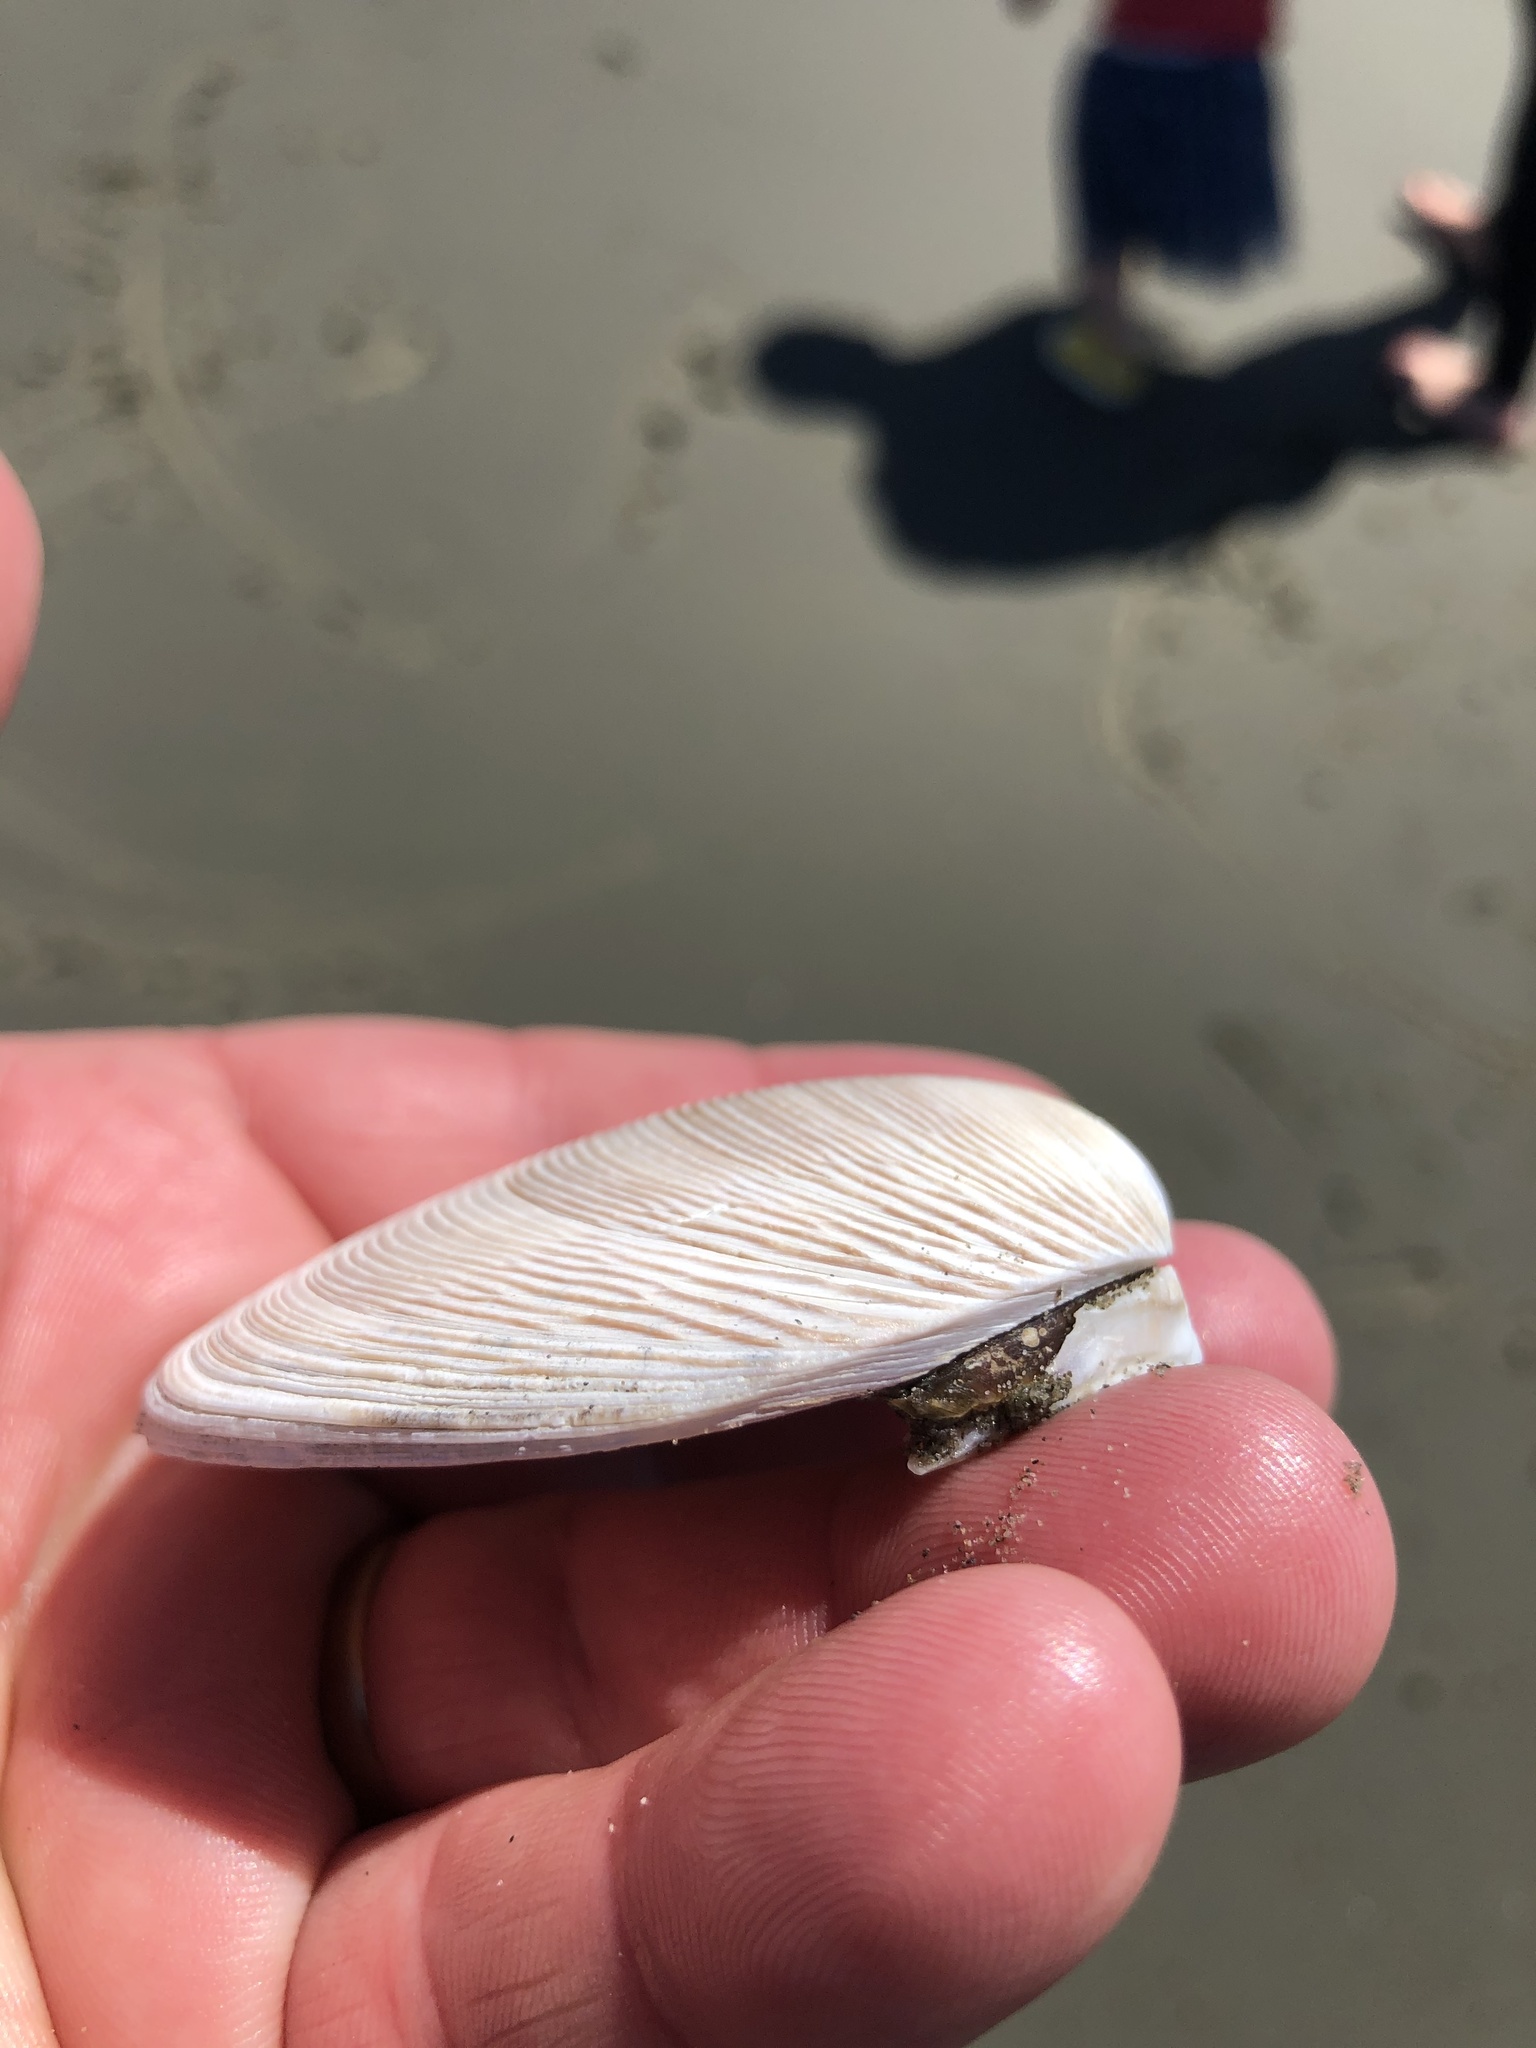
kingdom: Animalia
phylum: Mollusca
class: Bivalvia
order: Venerida
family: Veneridae
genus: Dosinia
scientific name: Dosinia anus
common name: Old-woman dosinia
